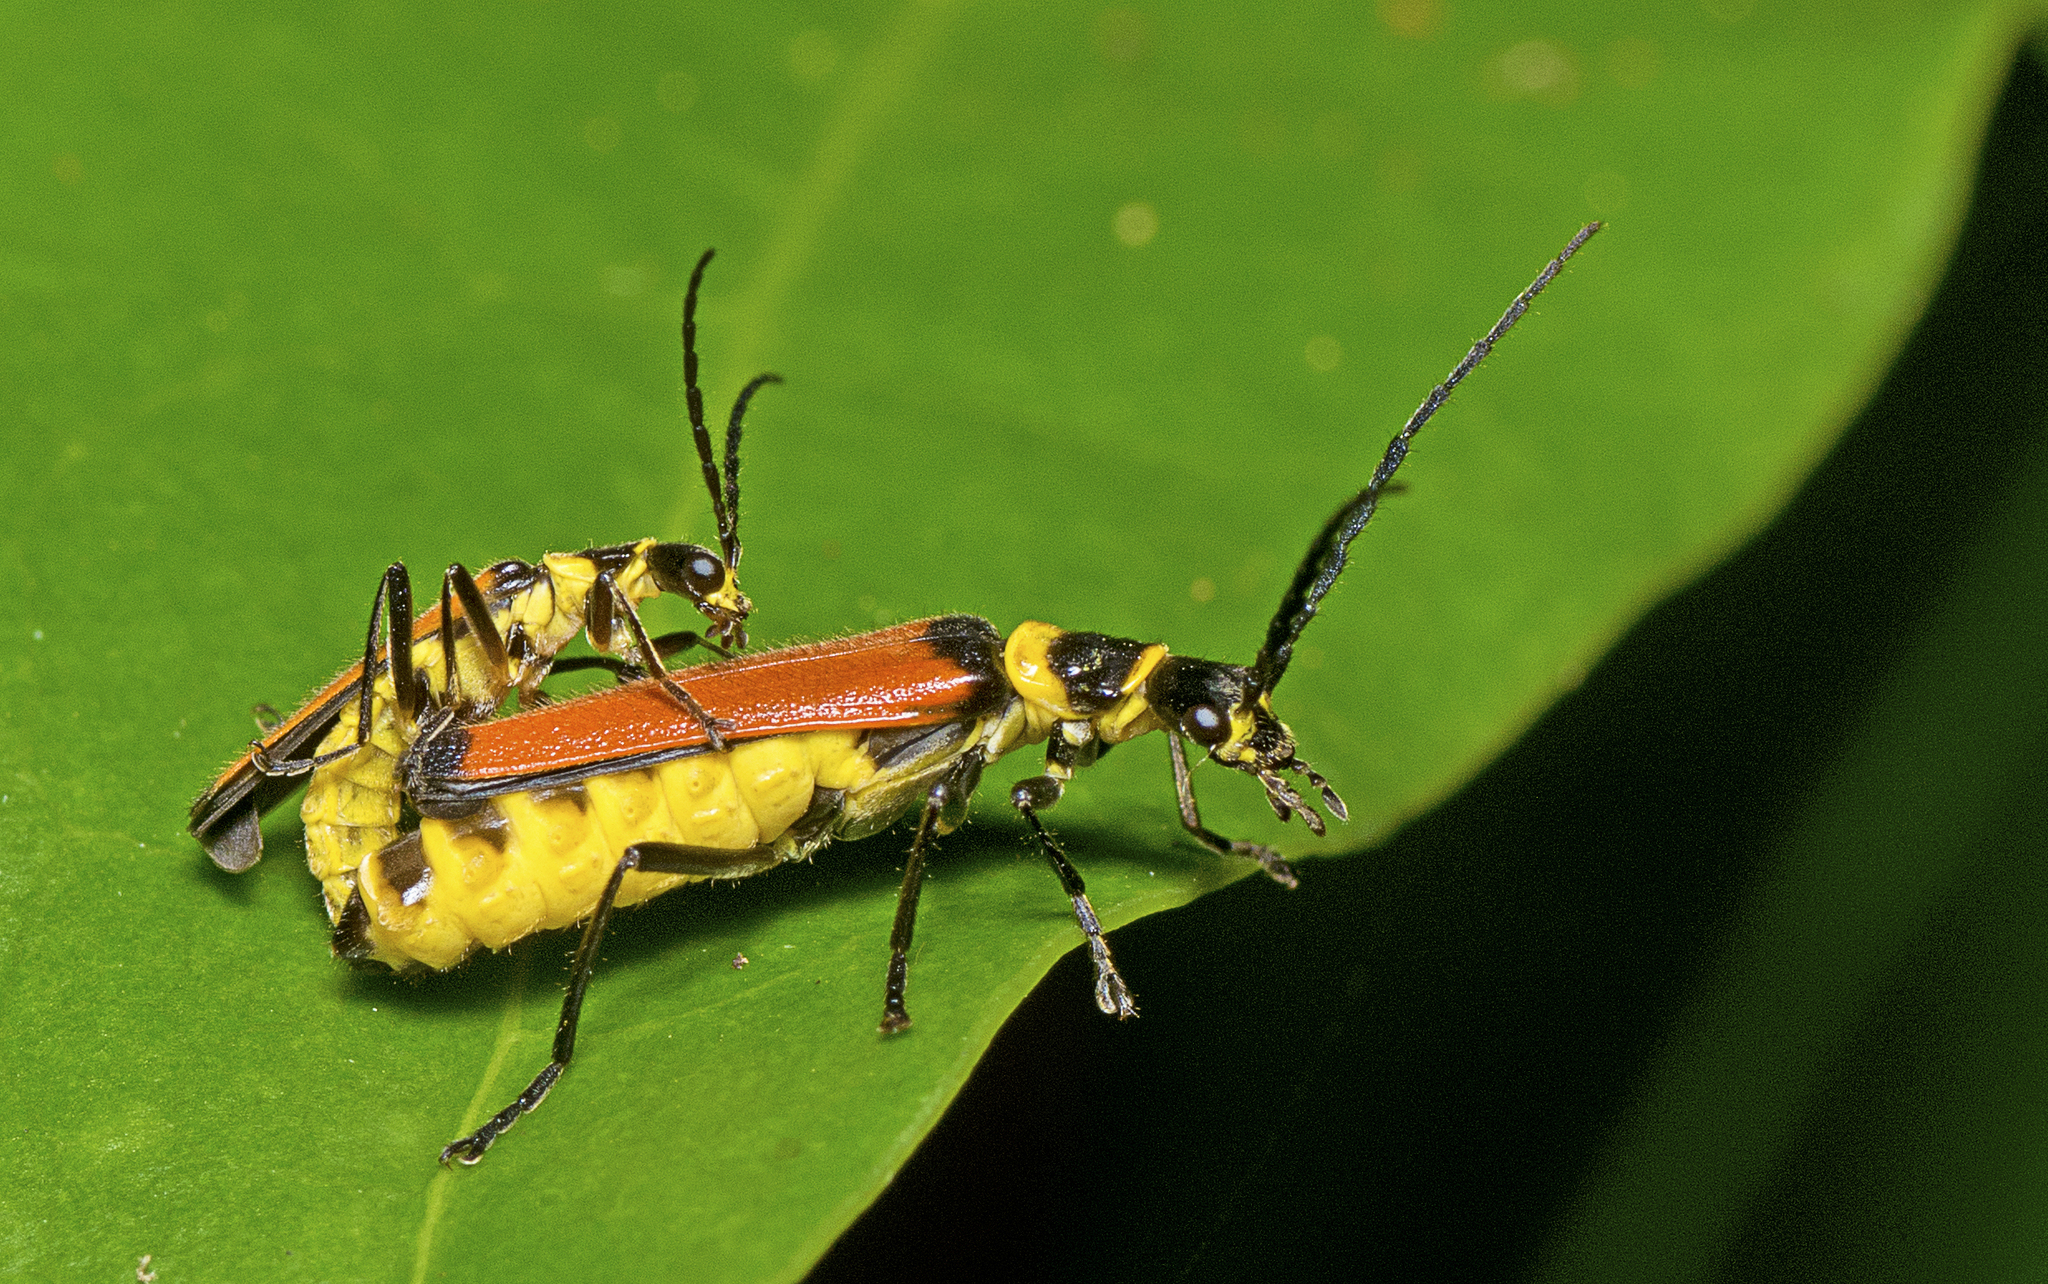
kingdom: Animalia
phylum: Arthropoda
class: Insecta
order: Coleoptera
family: Cantharidae
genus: Chauliognathus
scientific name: Chauliognathus
